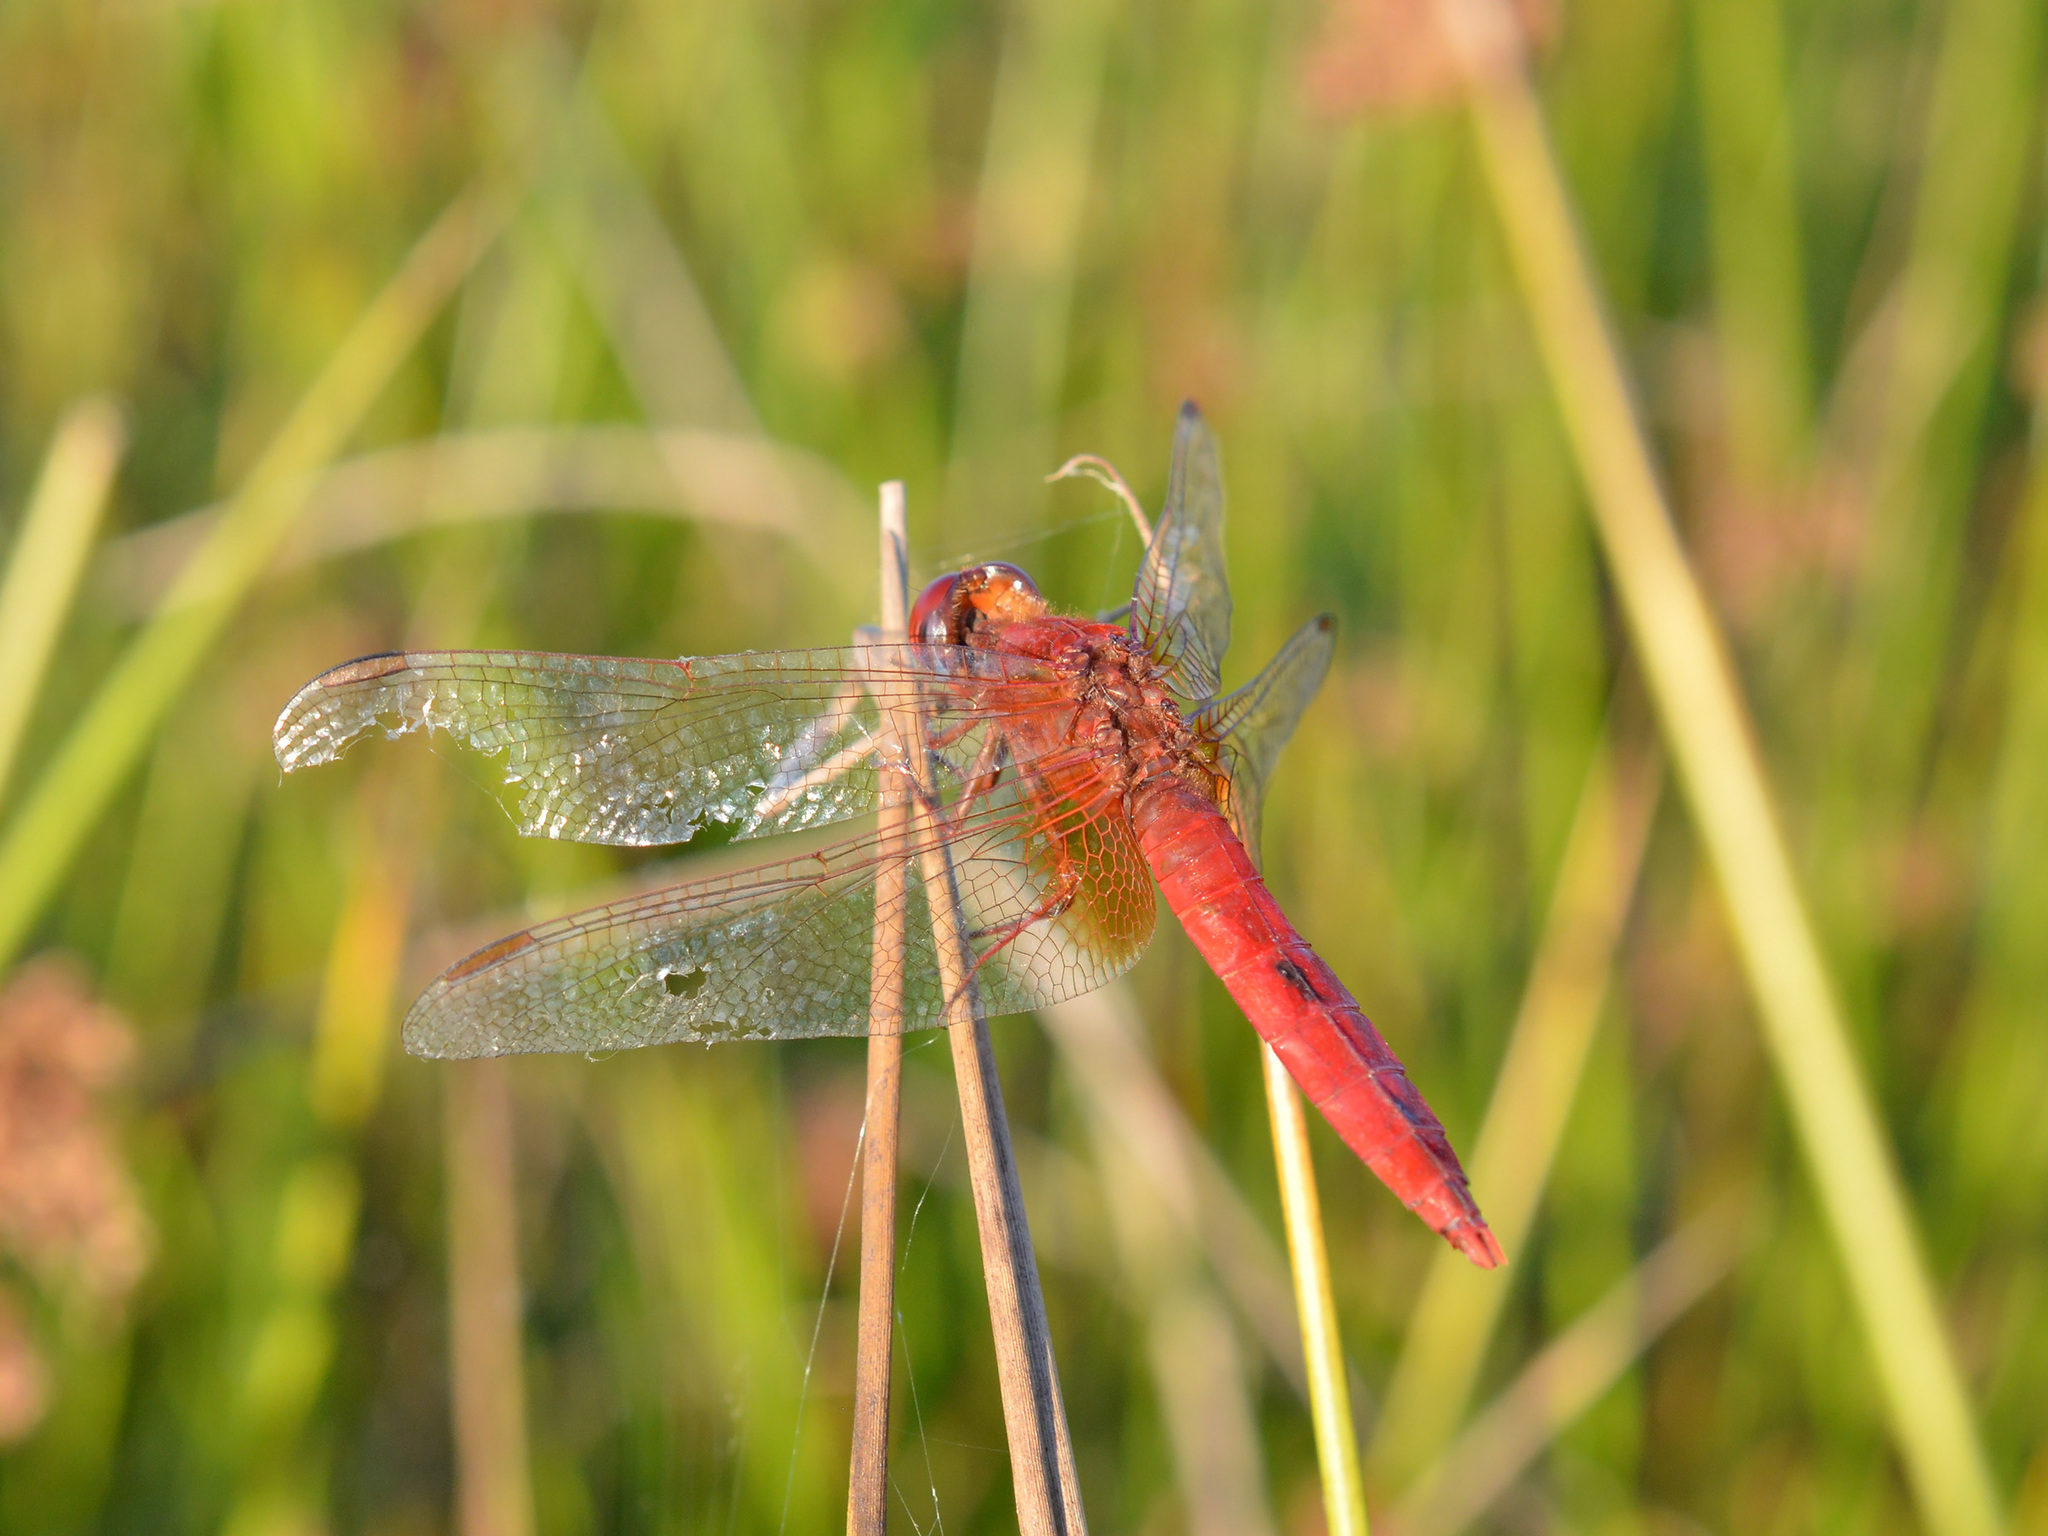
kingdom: Animalia
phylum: Arthropoda
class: Insecta
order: Odonata
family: Libellulidae
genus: Crocothemis
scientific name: Crocothemis erythraea
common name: Scarlet dragonfly
